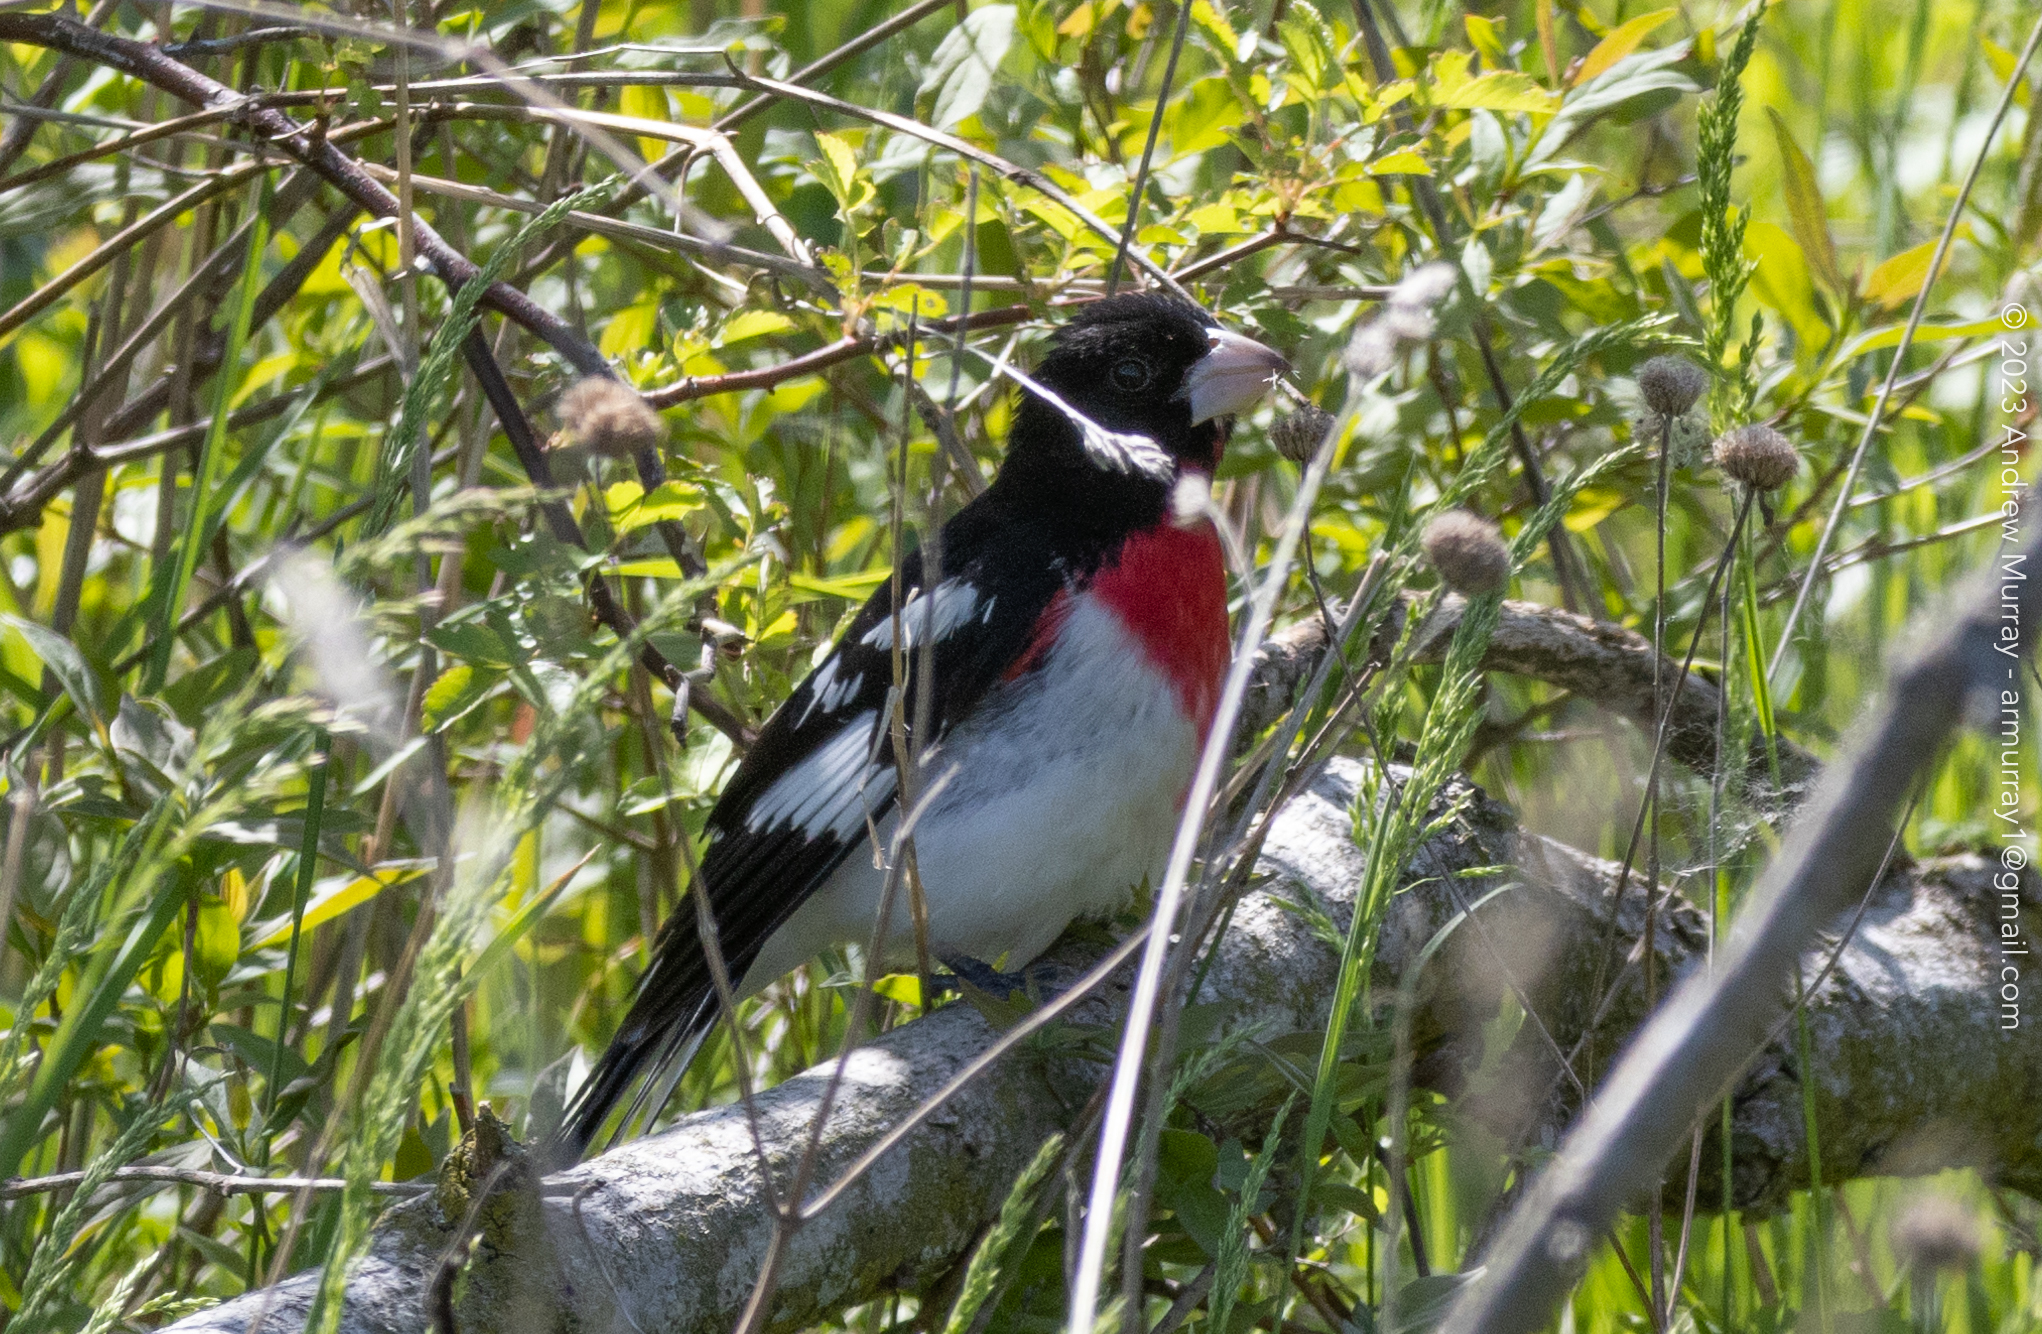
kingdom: Animalia
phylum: Chordata
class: Aves
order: Passeriformes
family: Cardinalidae
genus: Pheucticus
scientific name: Pheucticus ludovicianus
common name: Rose-breasted grosbeak
